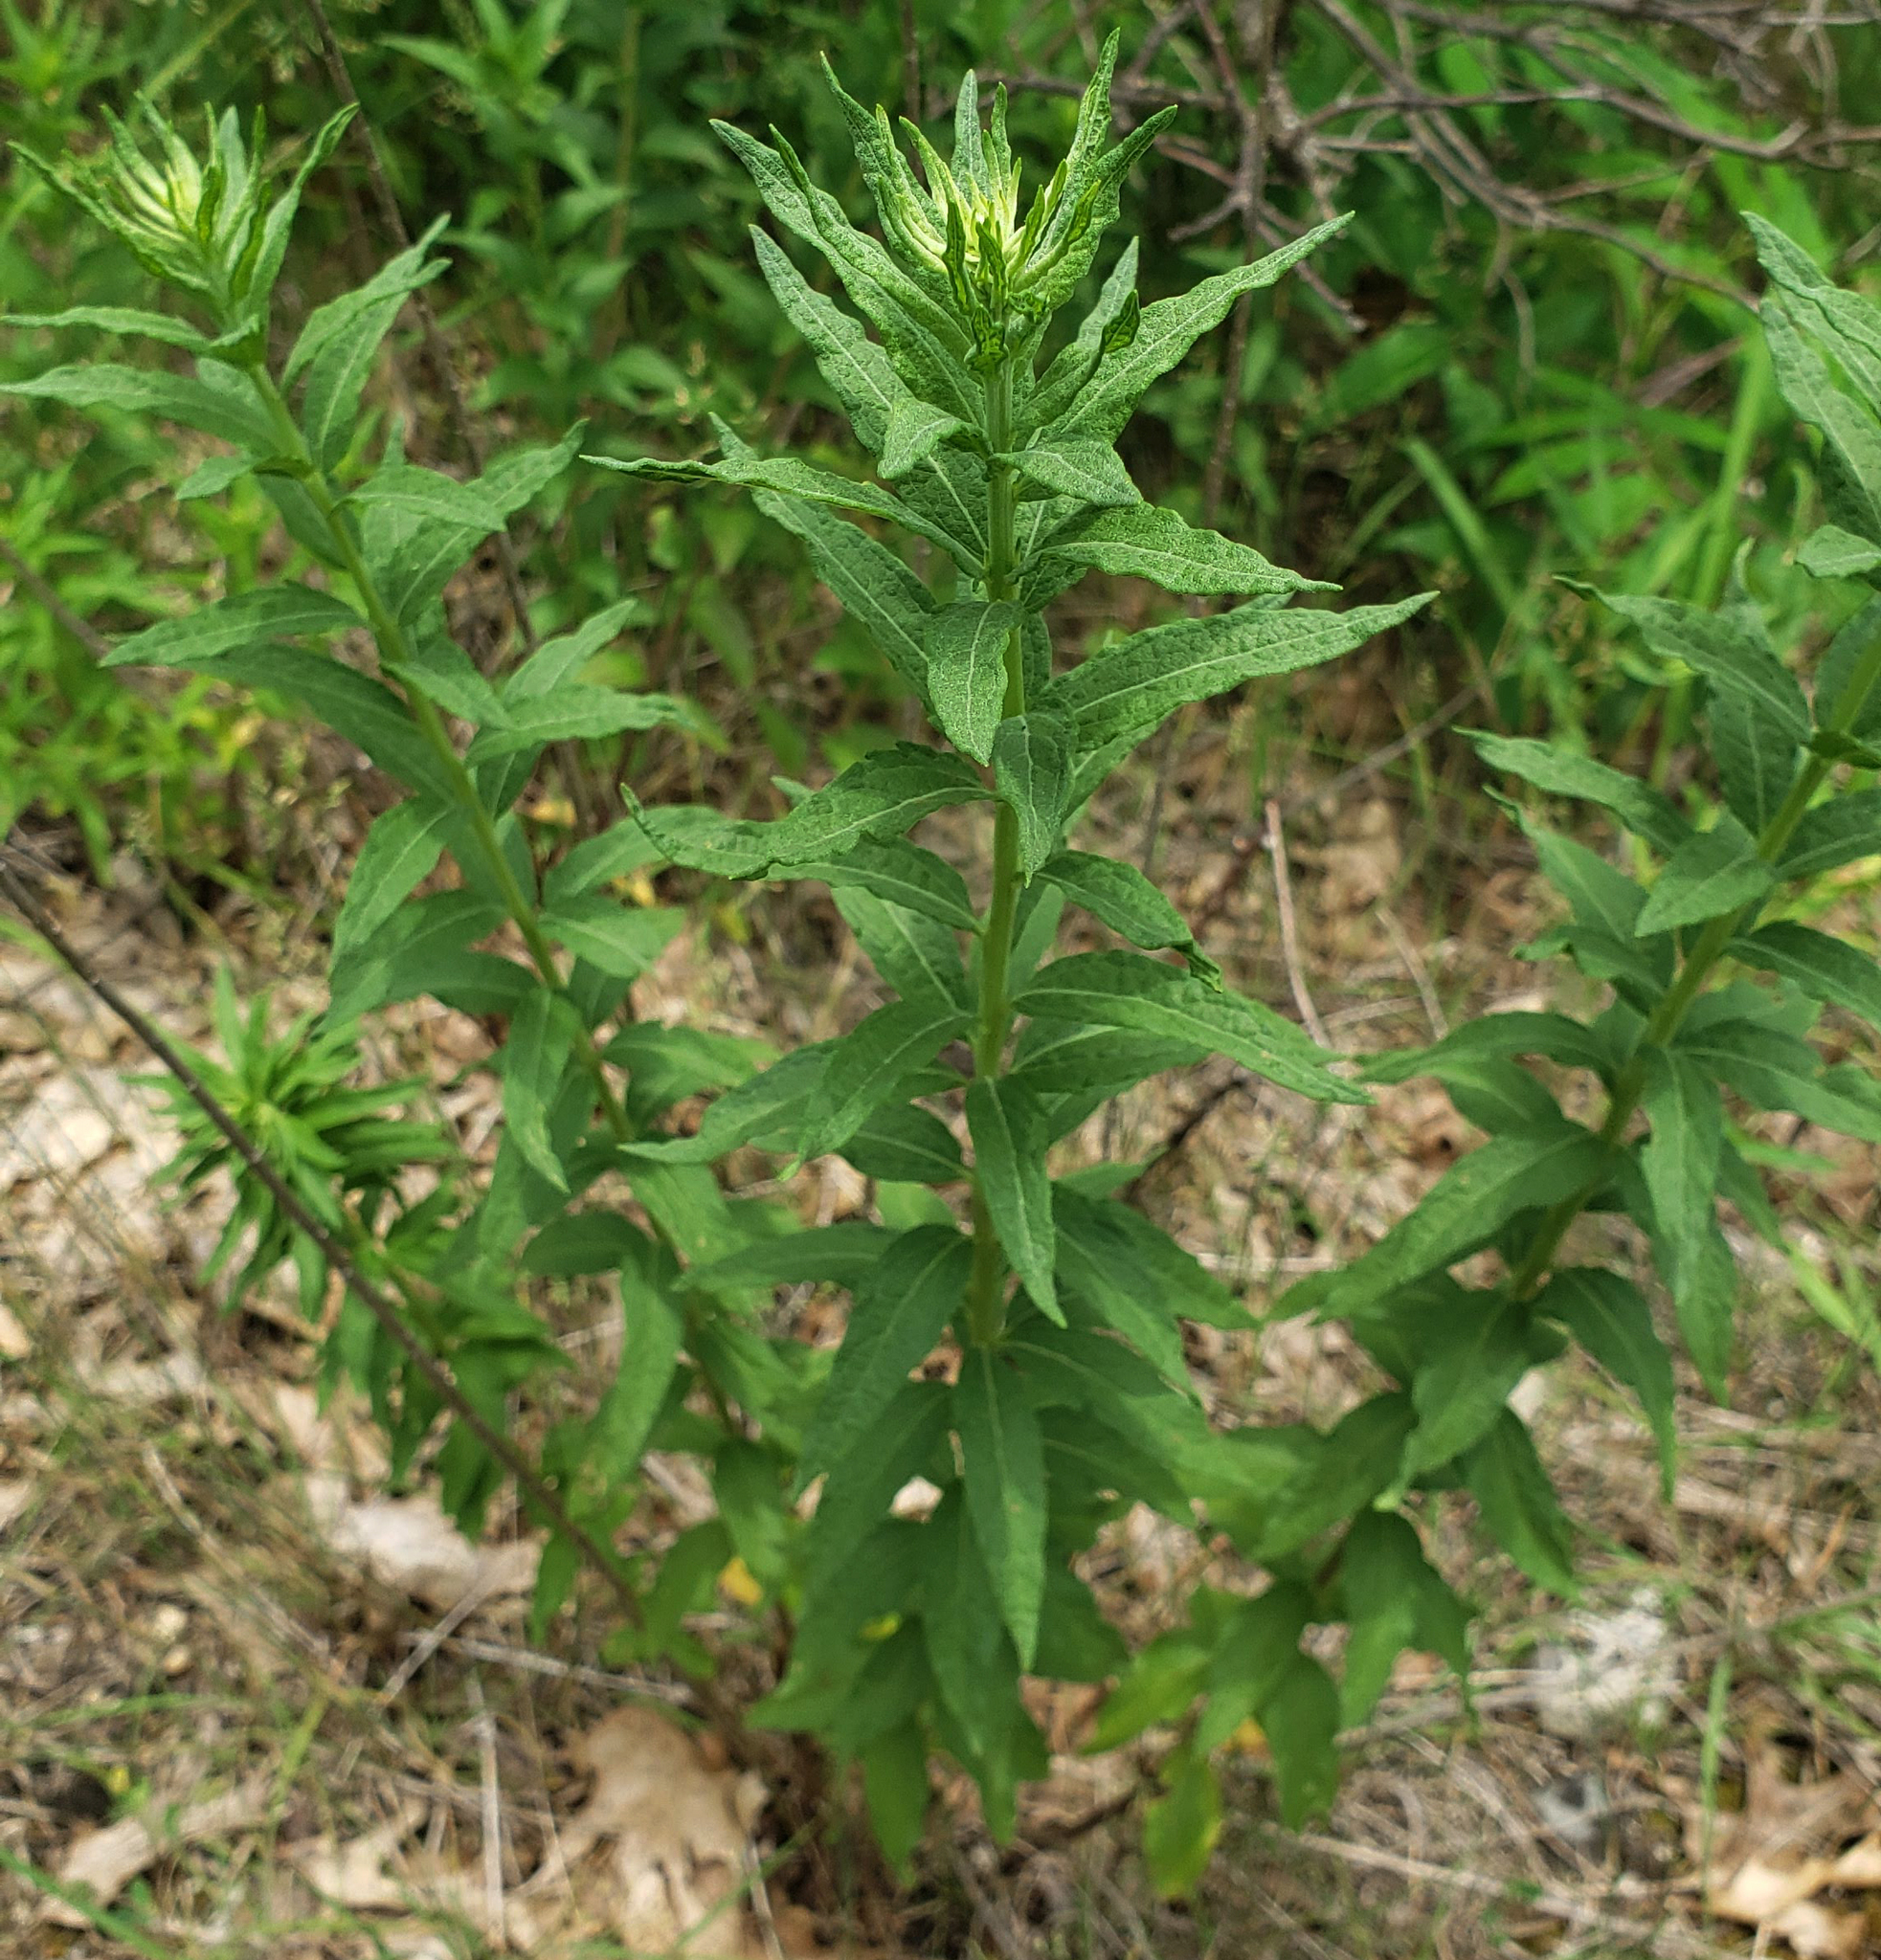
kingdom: Plantae
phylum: Tracheophyta
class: Magnoliopsida
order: Asterales
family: Asteraceae
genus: Brickellia
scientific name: Brickellia eupatorioides
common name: False boneset
